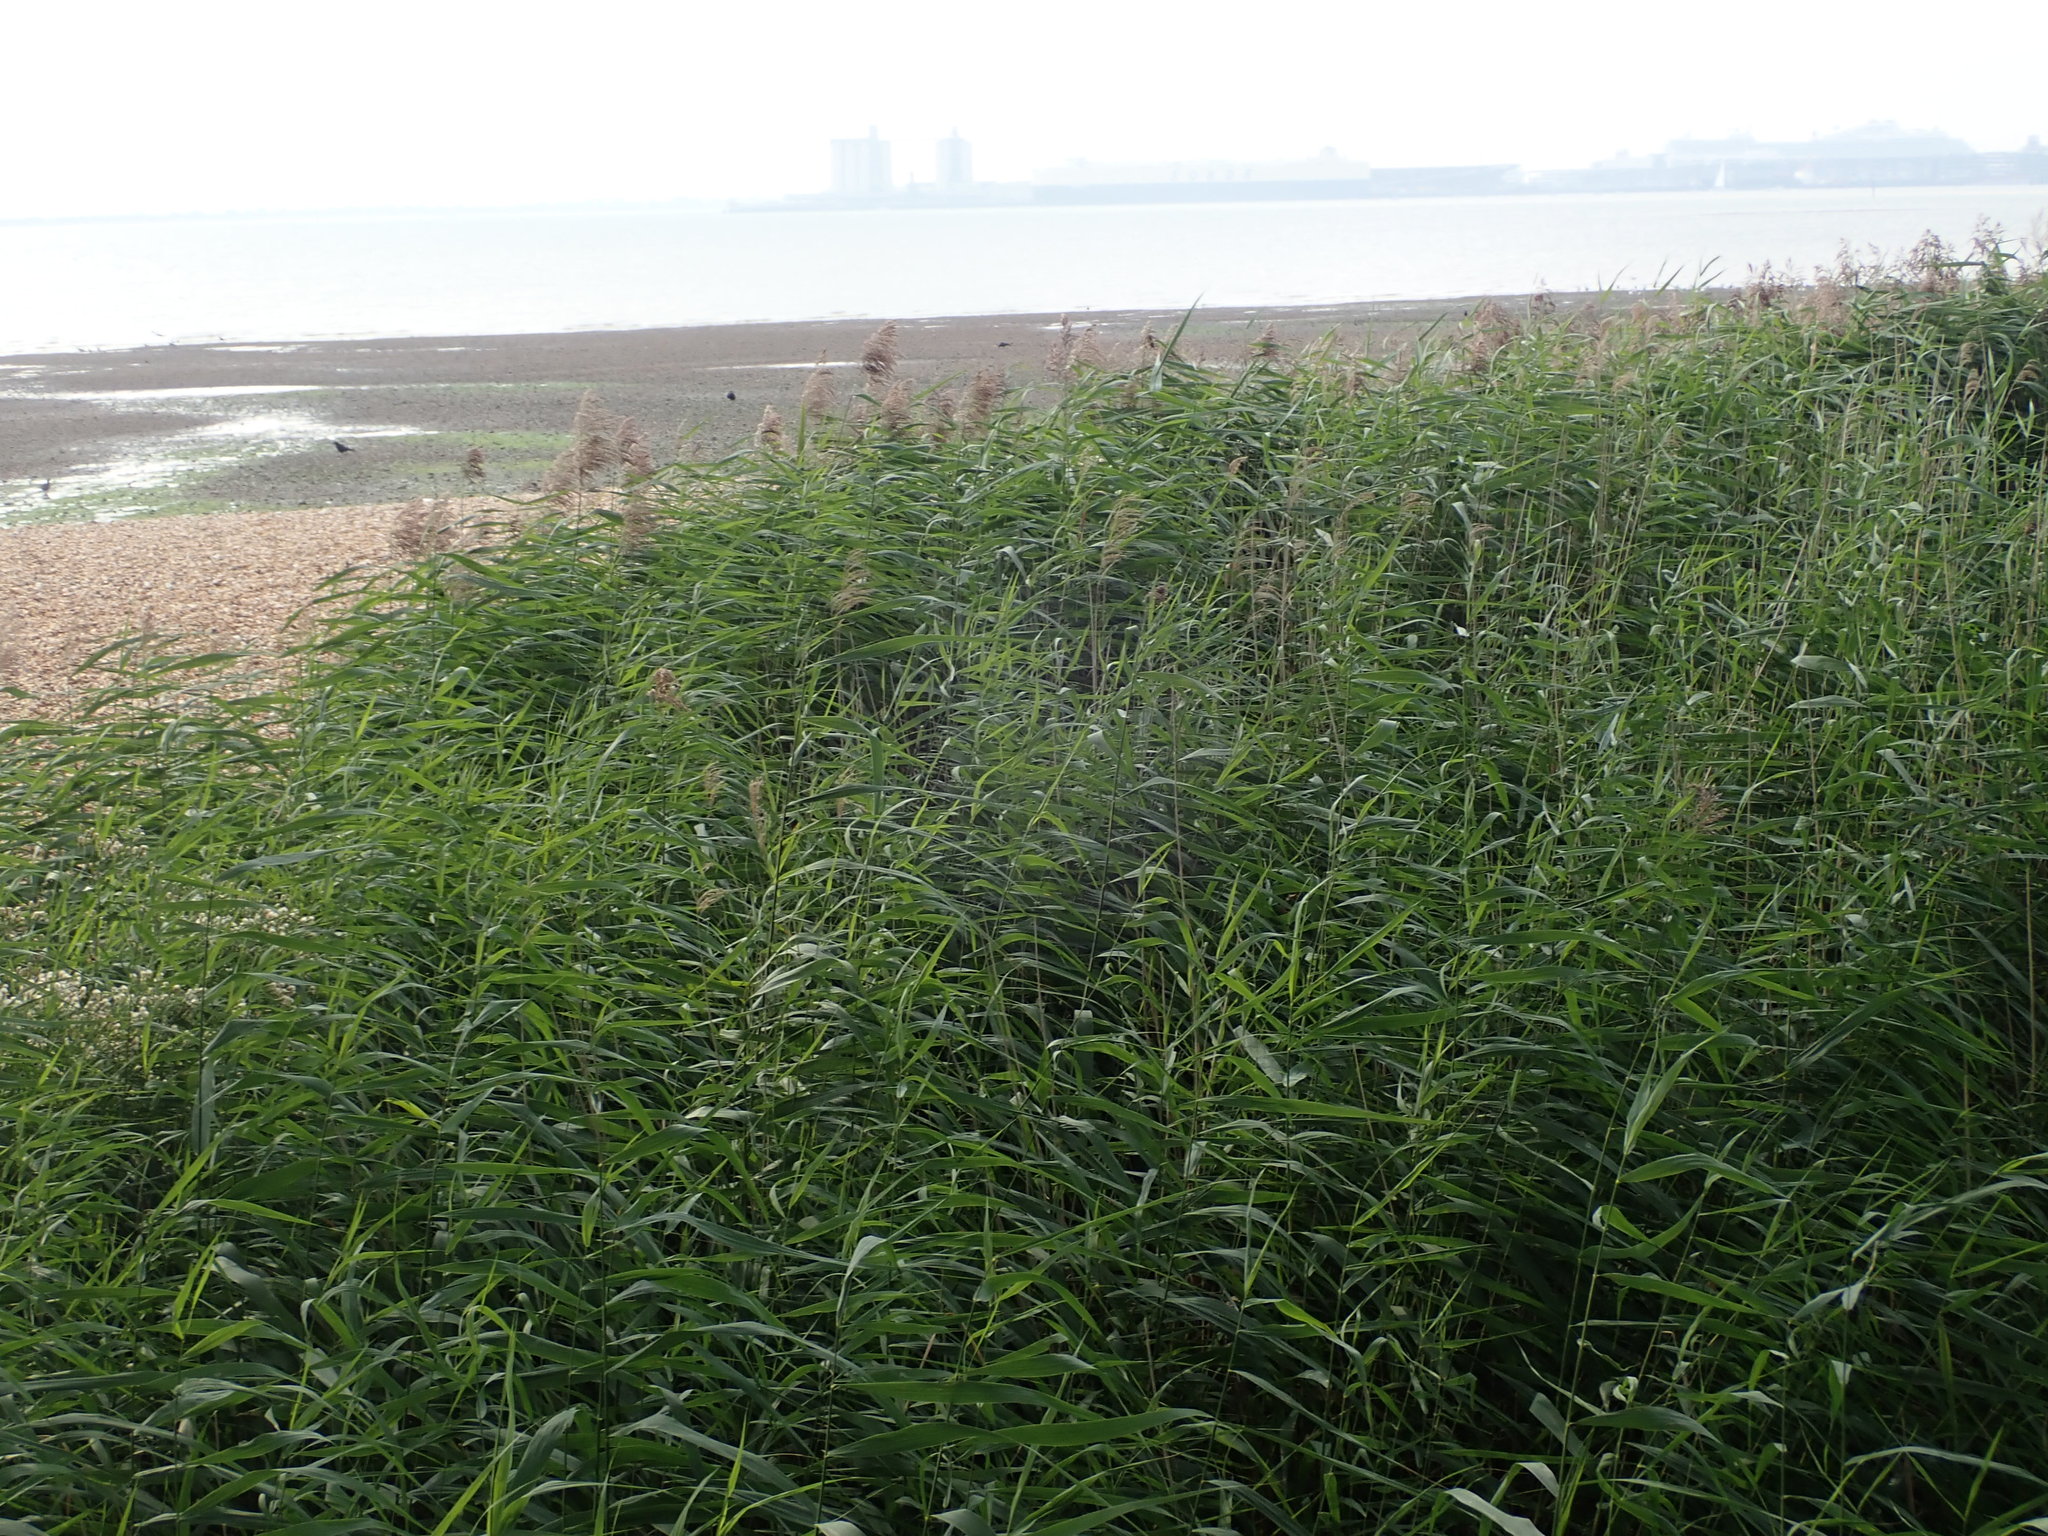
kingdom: Plantae
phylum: Tracheophyta
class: Liliopsida
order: Poales
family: Poaceae
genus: Phragmites
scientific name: Phragmites australis
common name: Common reed
